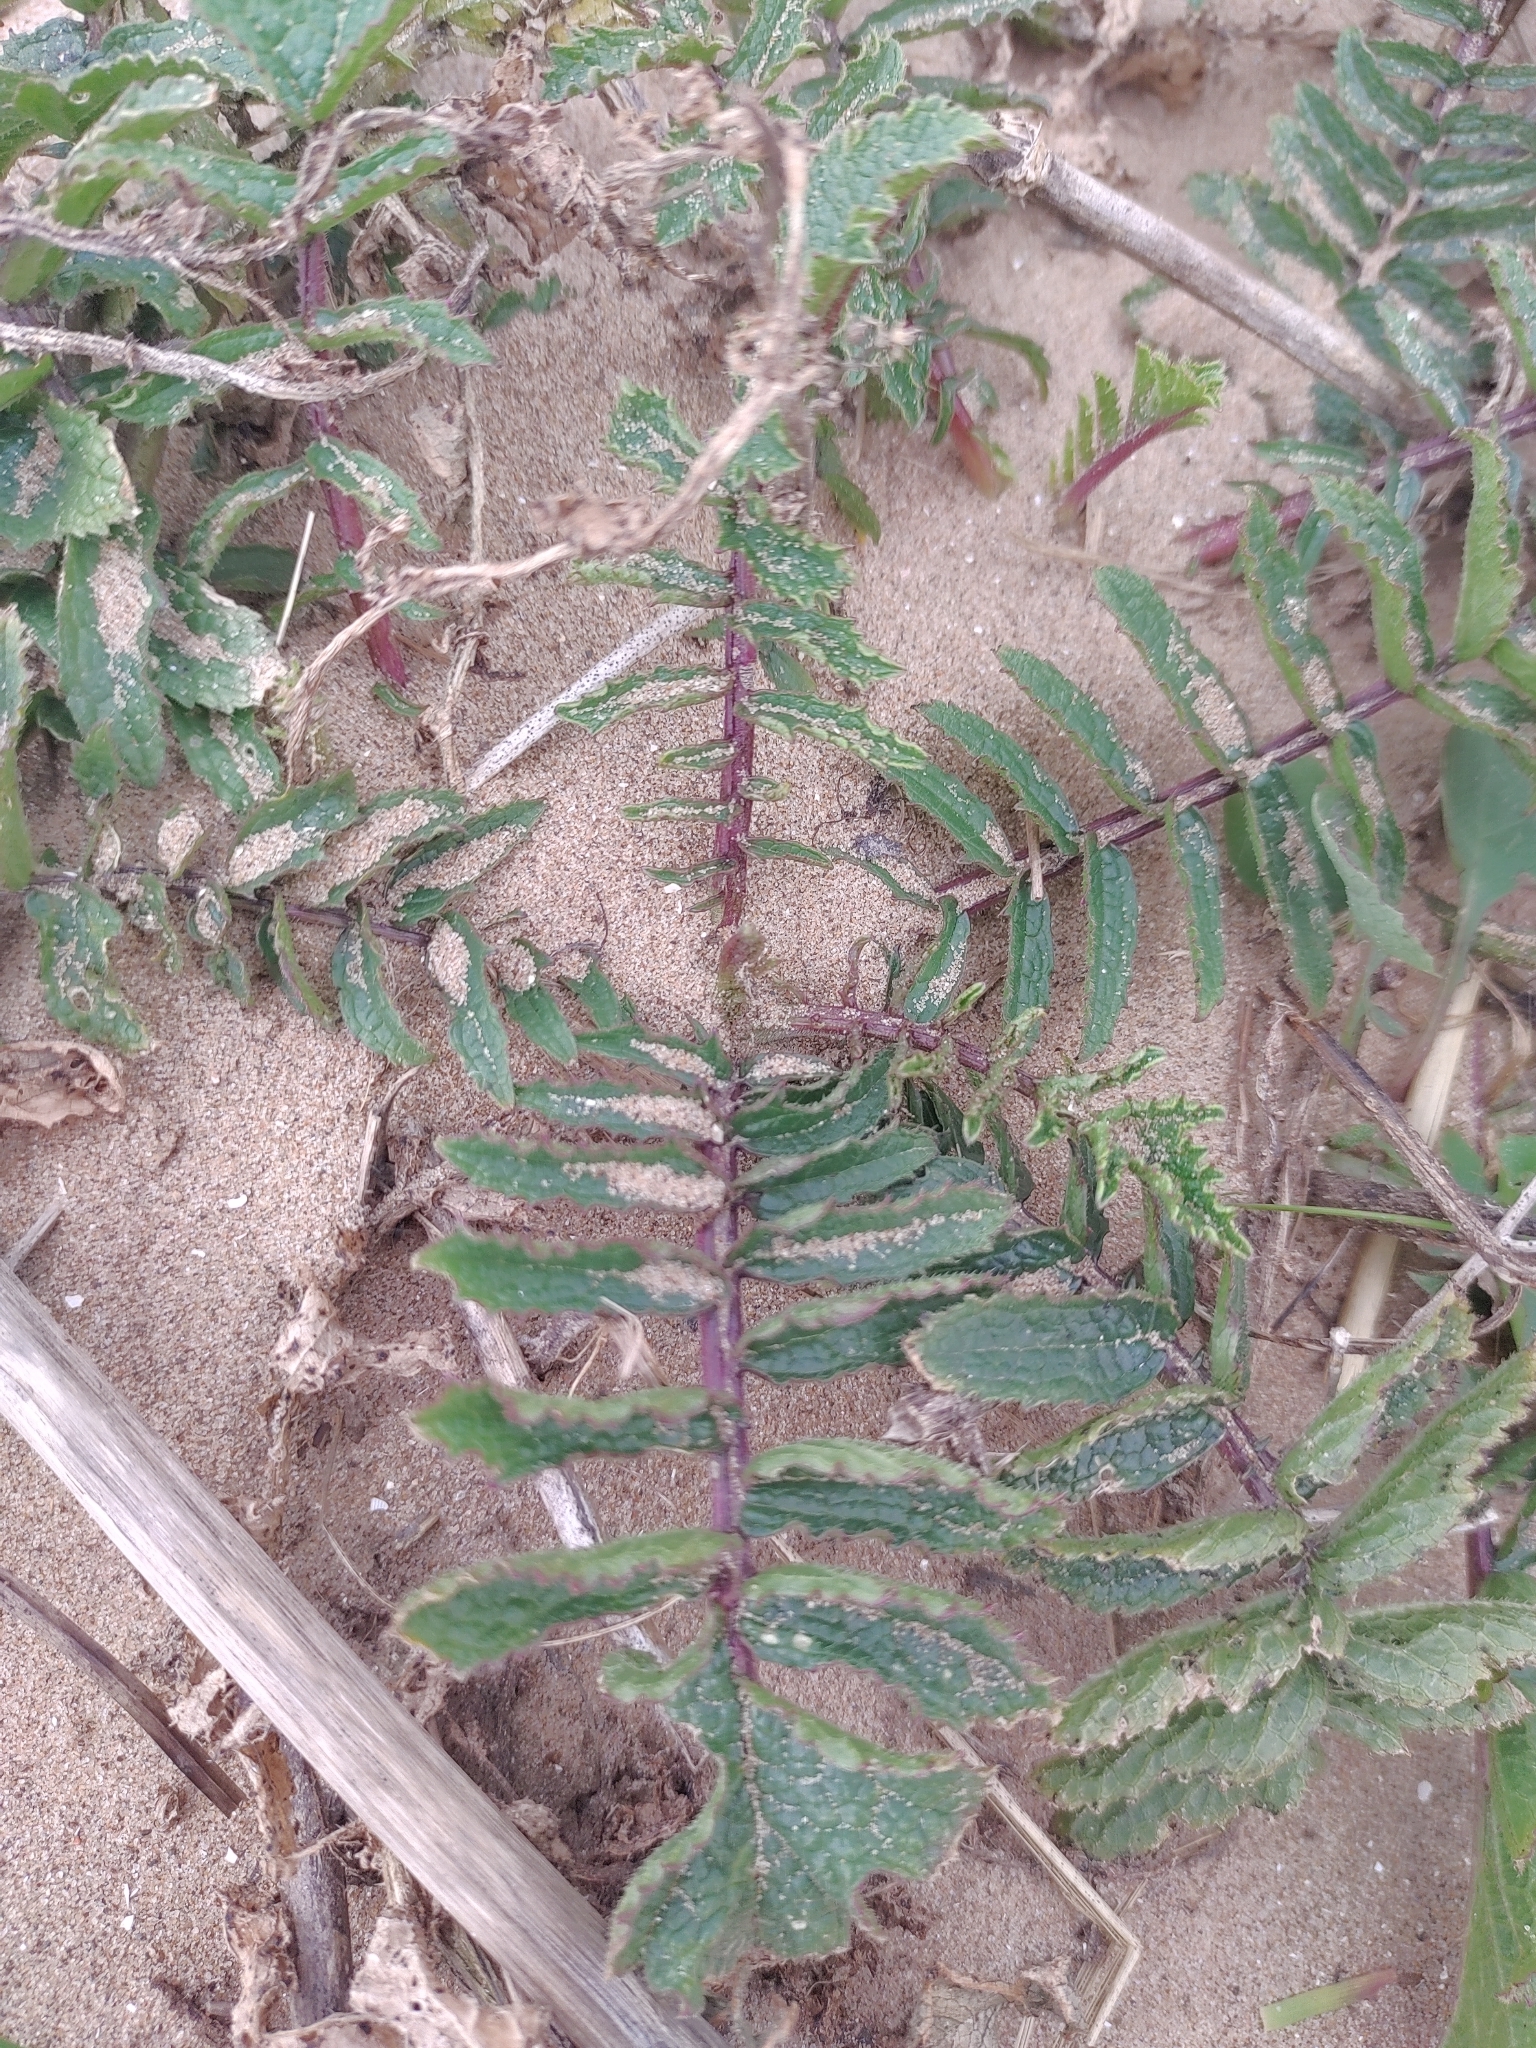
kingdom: Plantae
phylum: Tracheophyta
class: Magnoliopsida
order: Brassicales
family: Brassicaceae
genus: Raphanus
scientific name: Raphanus raphanistrum
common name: Wild radish
